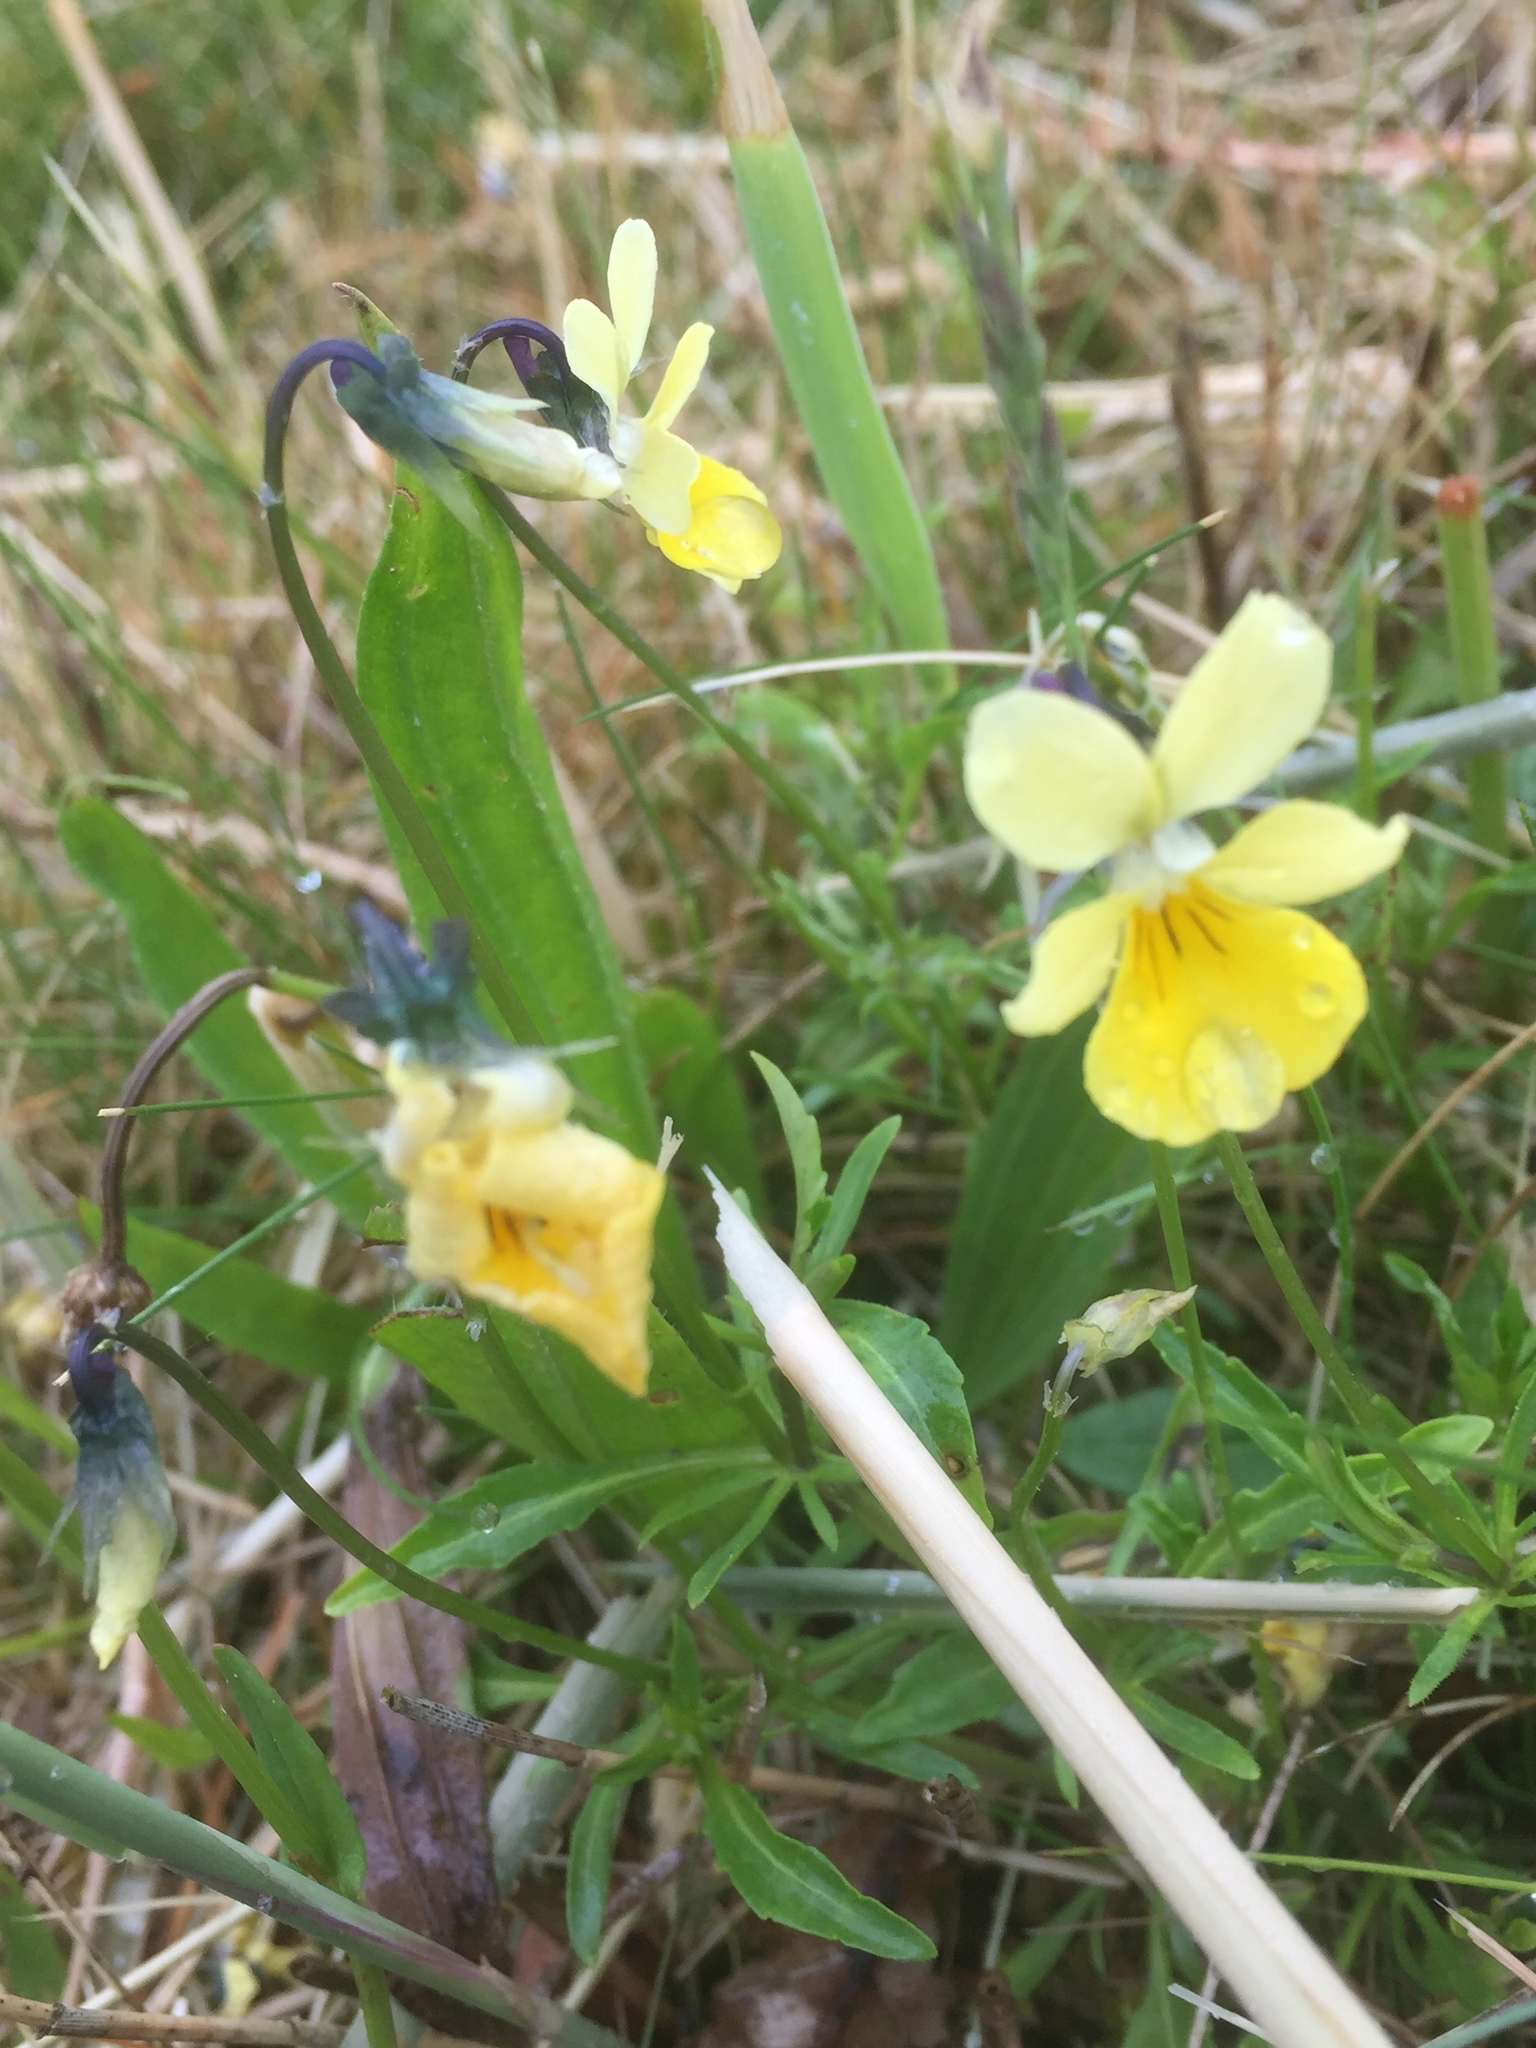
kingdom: Plantae
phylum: Tracheophyta
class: Magnoliopsida
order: Malpighiales
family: Violaceae
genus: Viola
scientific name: Viola lutea
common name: Mountain pansy
